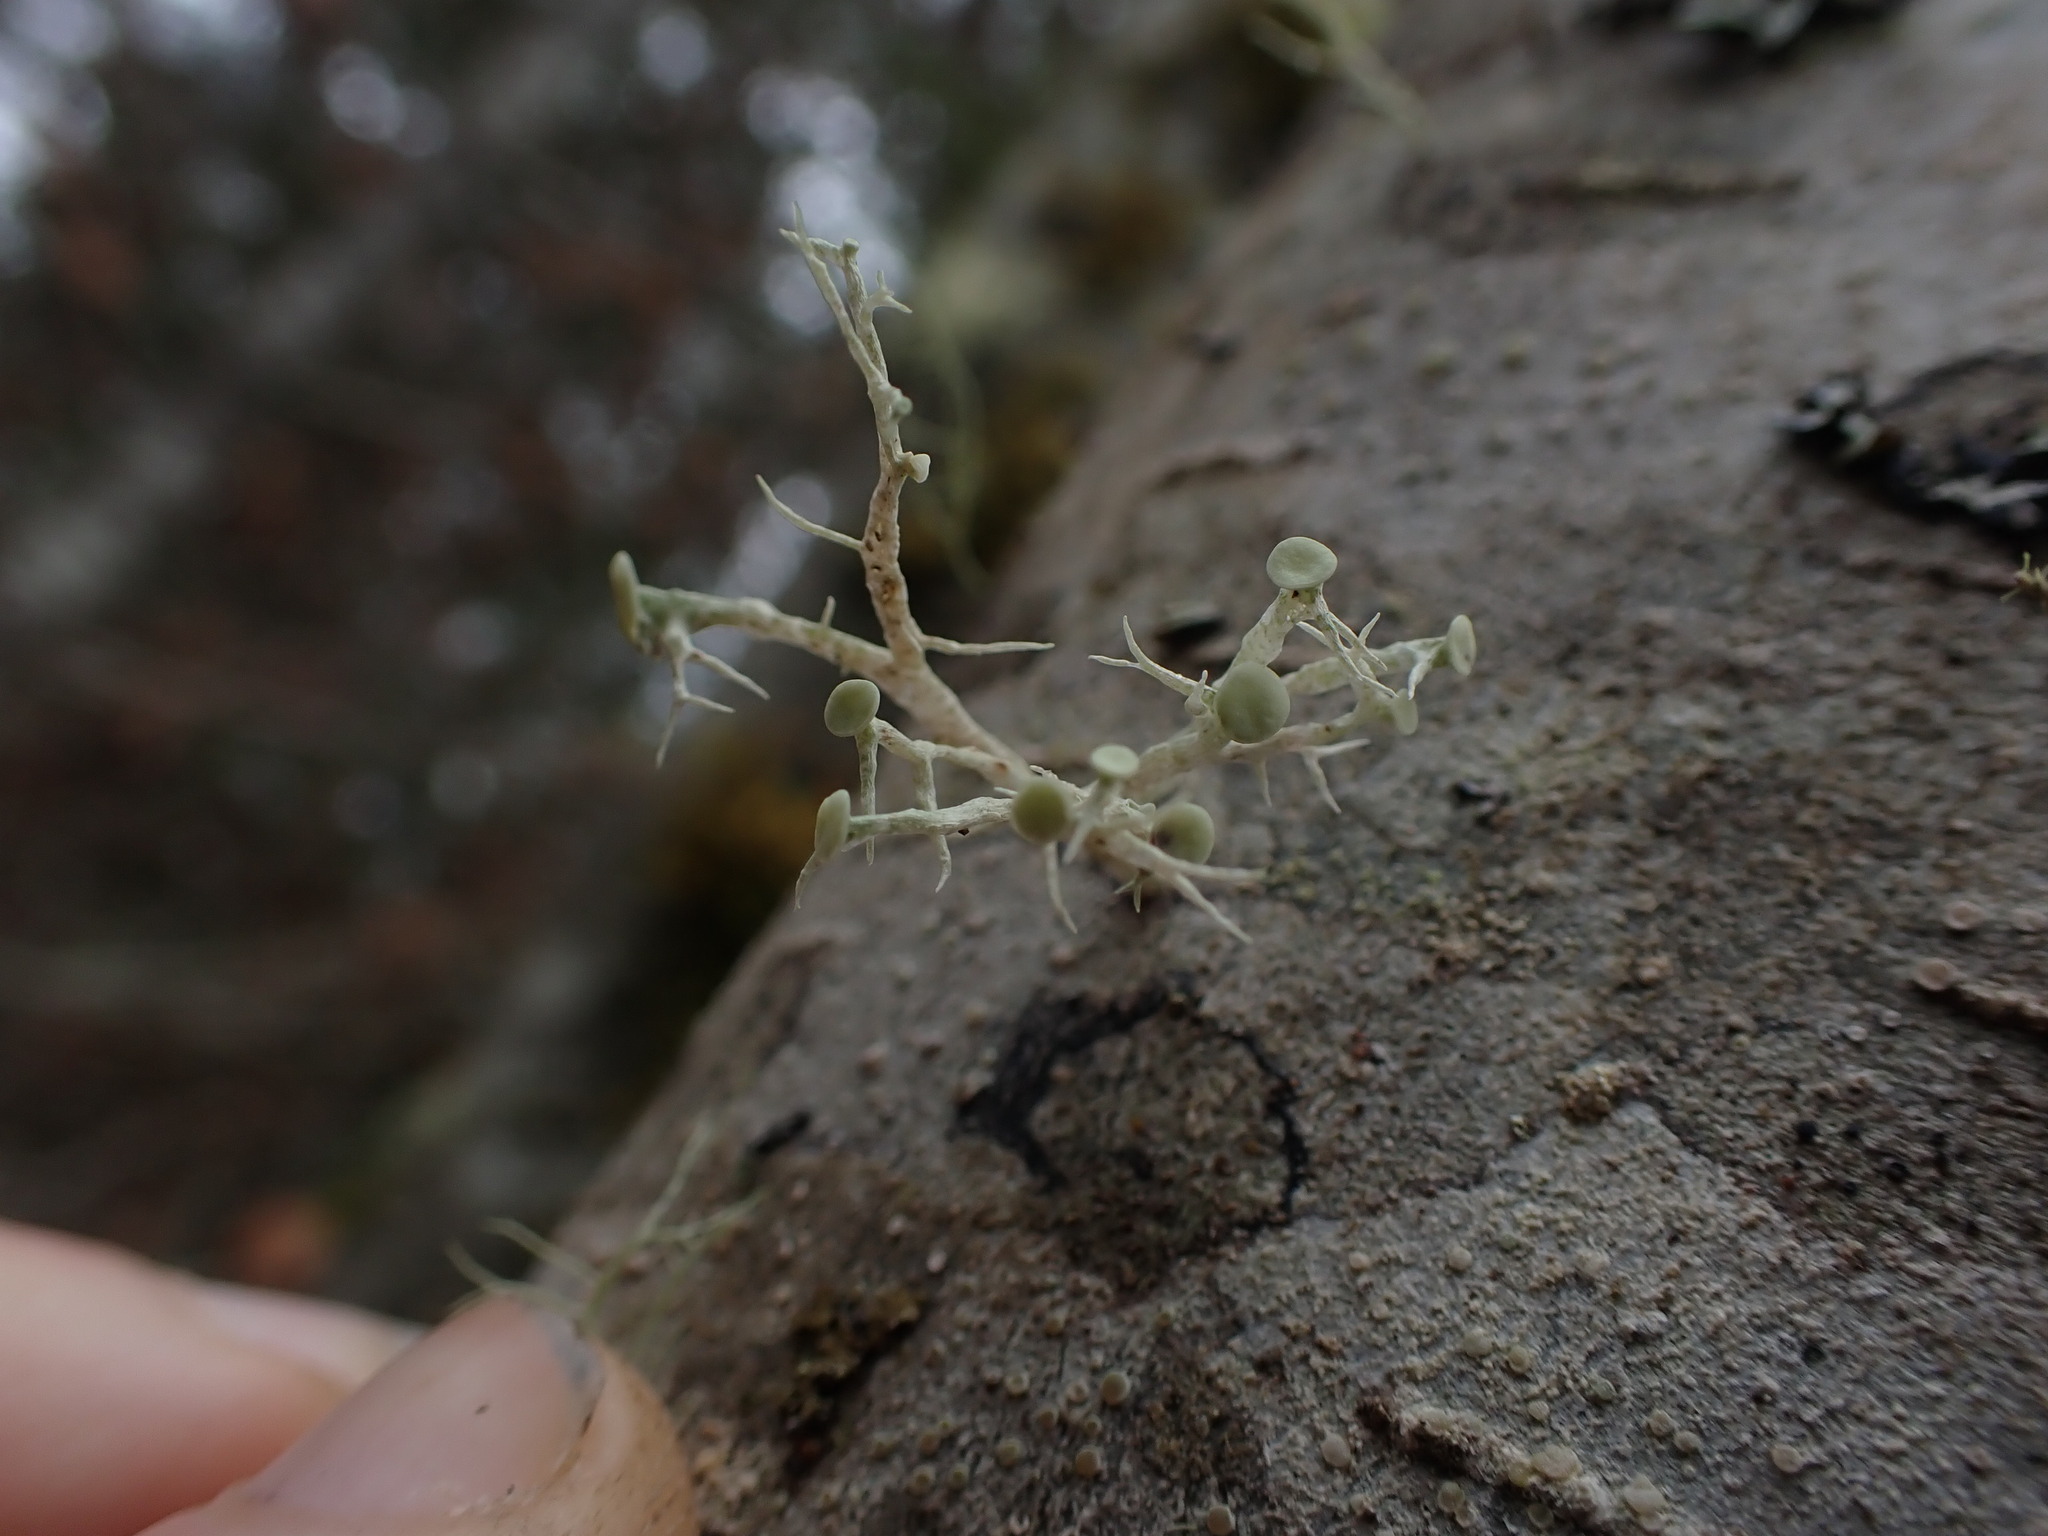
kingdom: Fungi
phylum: Ascomycota
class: Lecanoromycetes
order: Lecanorales
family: Ramalinaceae
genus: Ramalina
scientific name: Ramalina dilacerata
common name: Punctured bushy lichen
